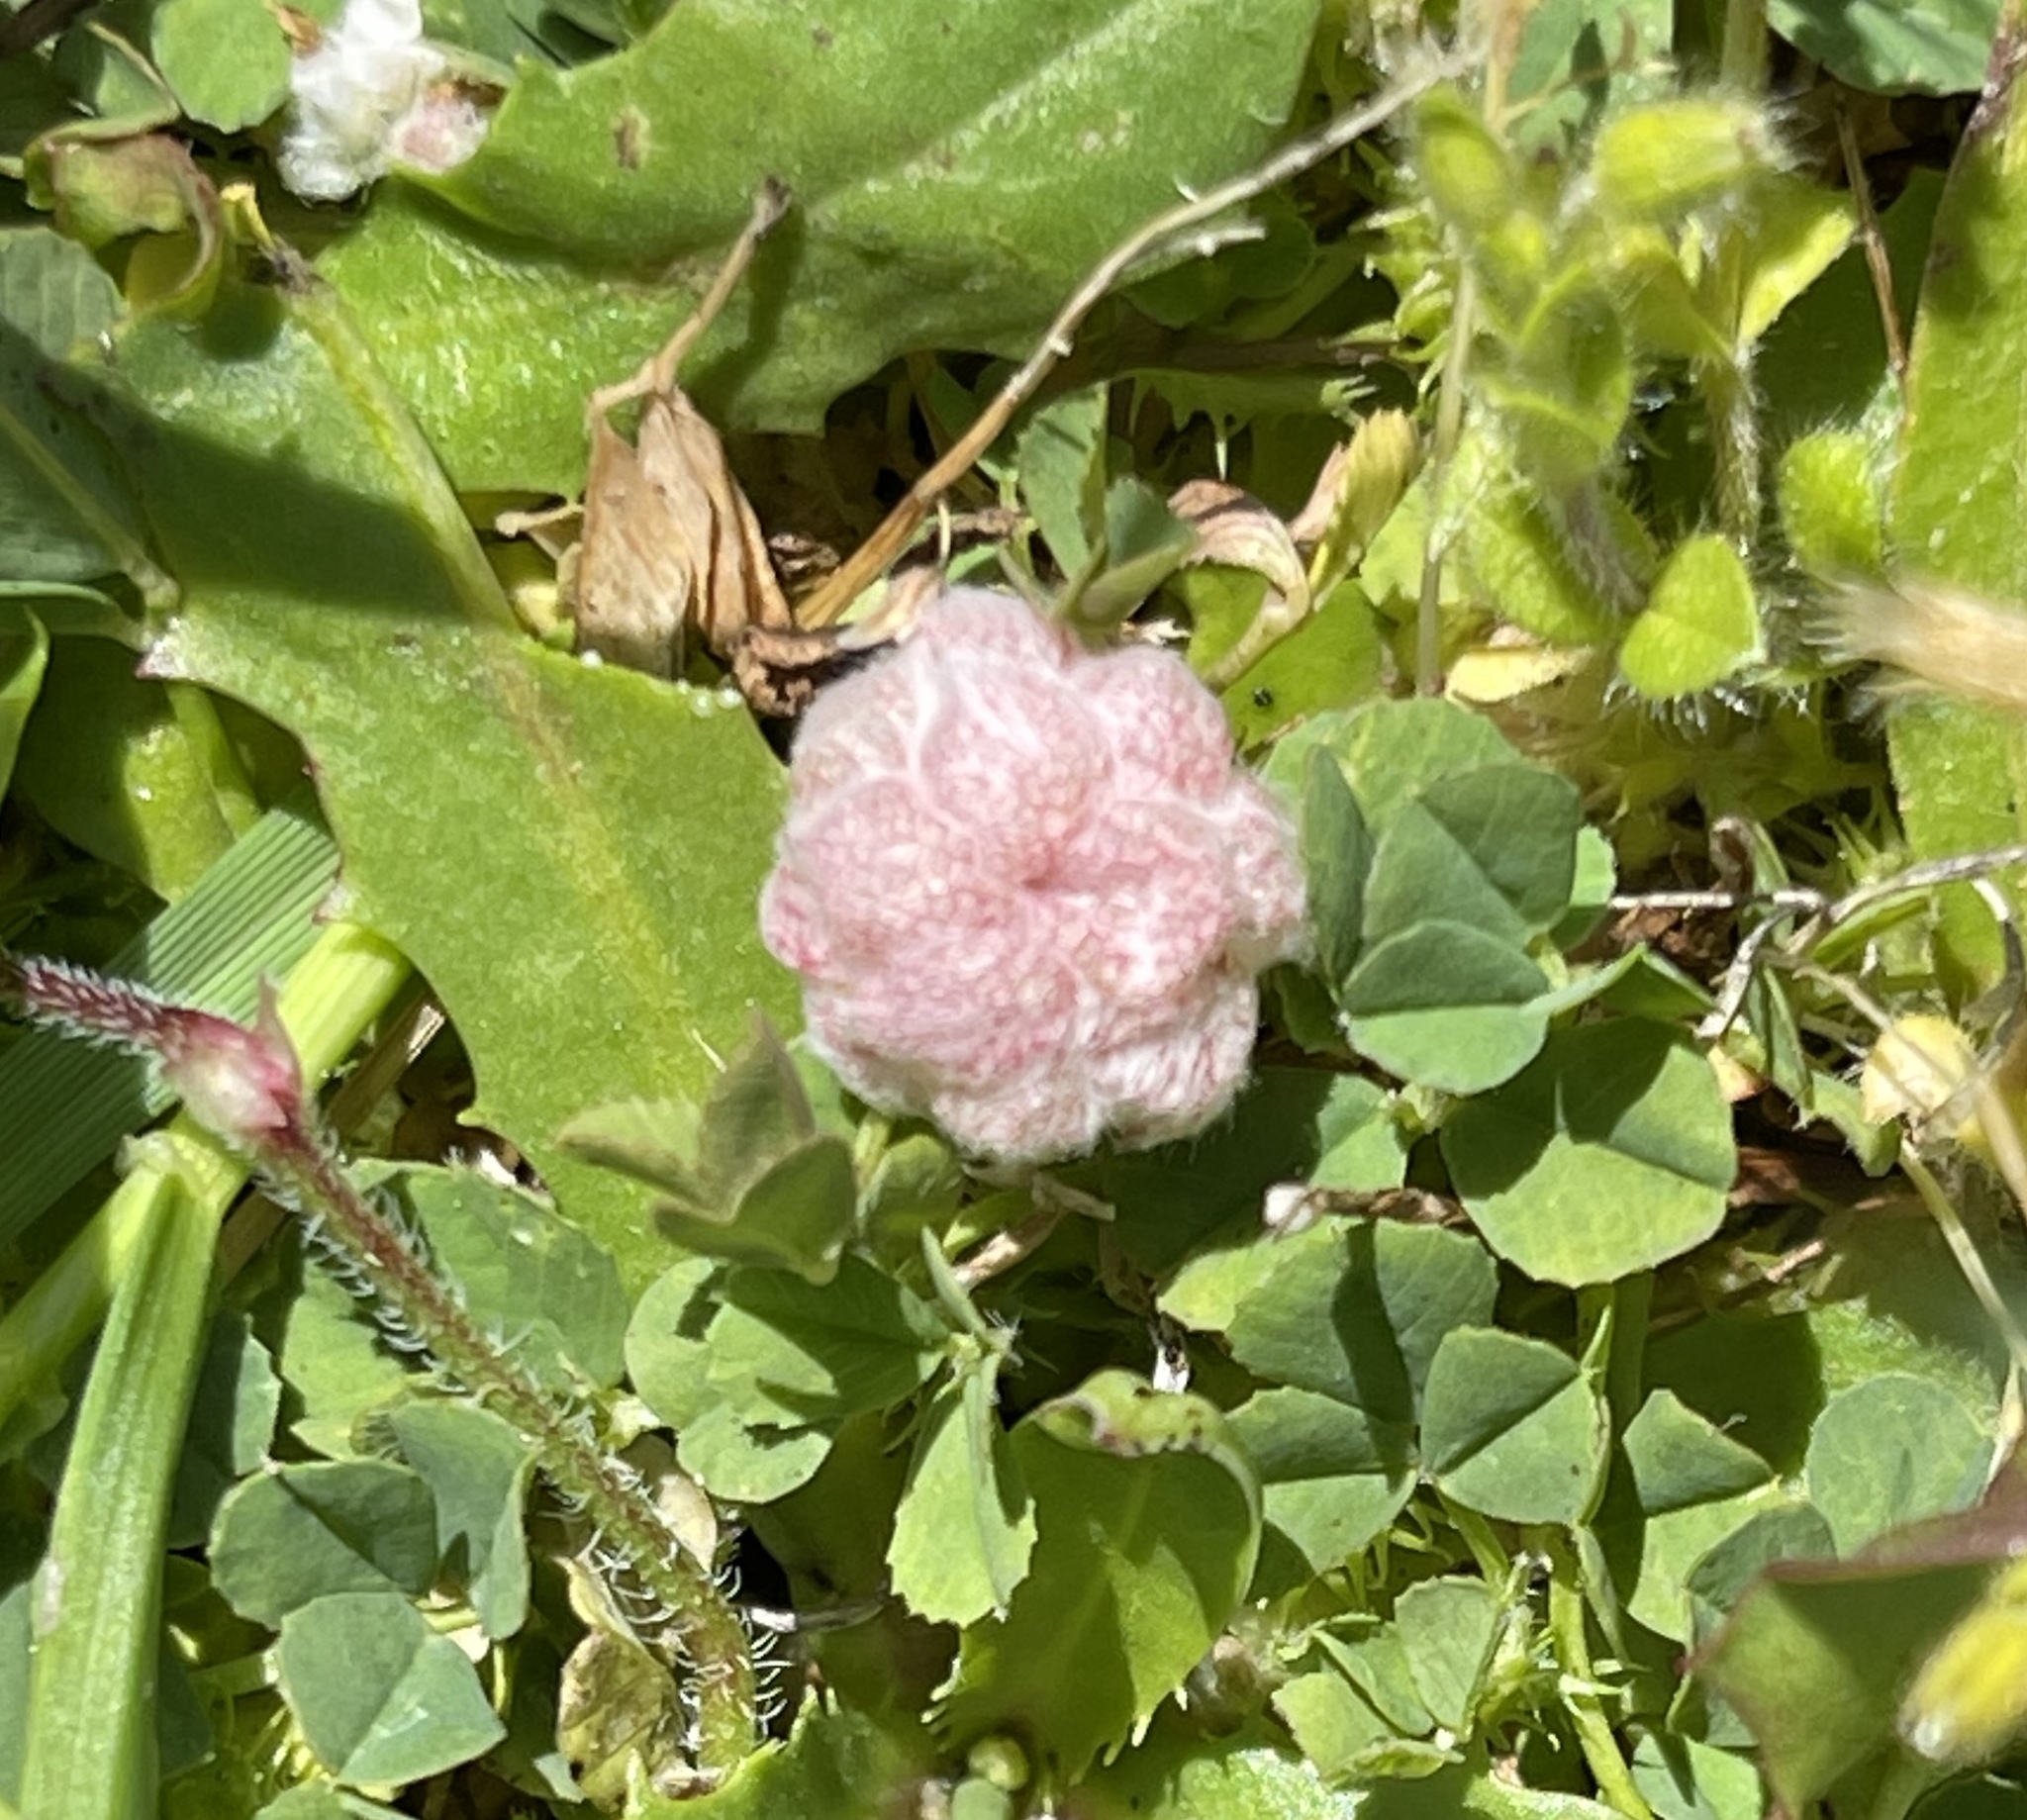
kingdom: Plantae
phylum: Tracheophyta
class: Magnoliopsida
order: Fabales
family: Fabaceae
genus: Trifolium
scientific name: Trifolium tomentosum
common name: Woolly clover
